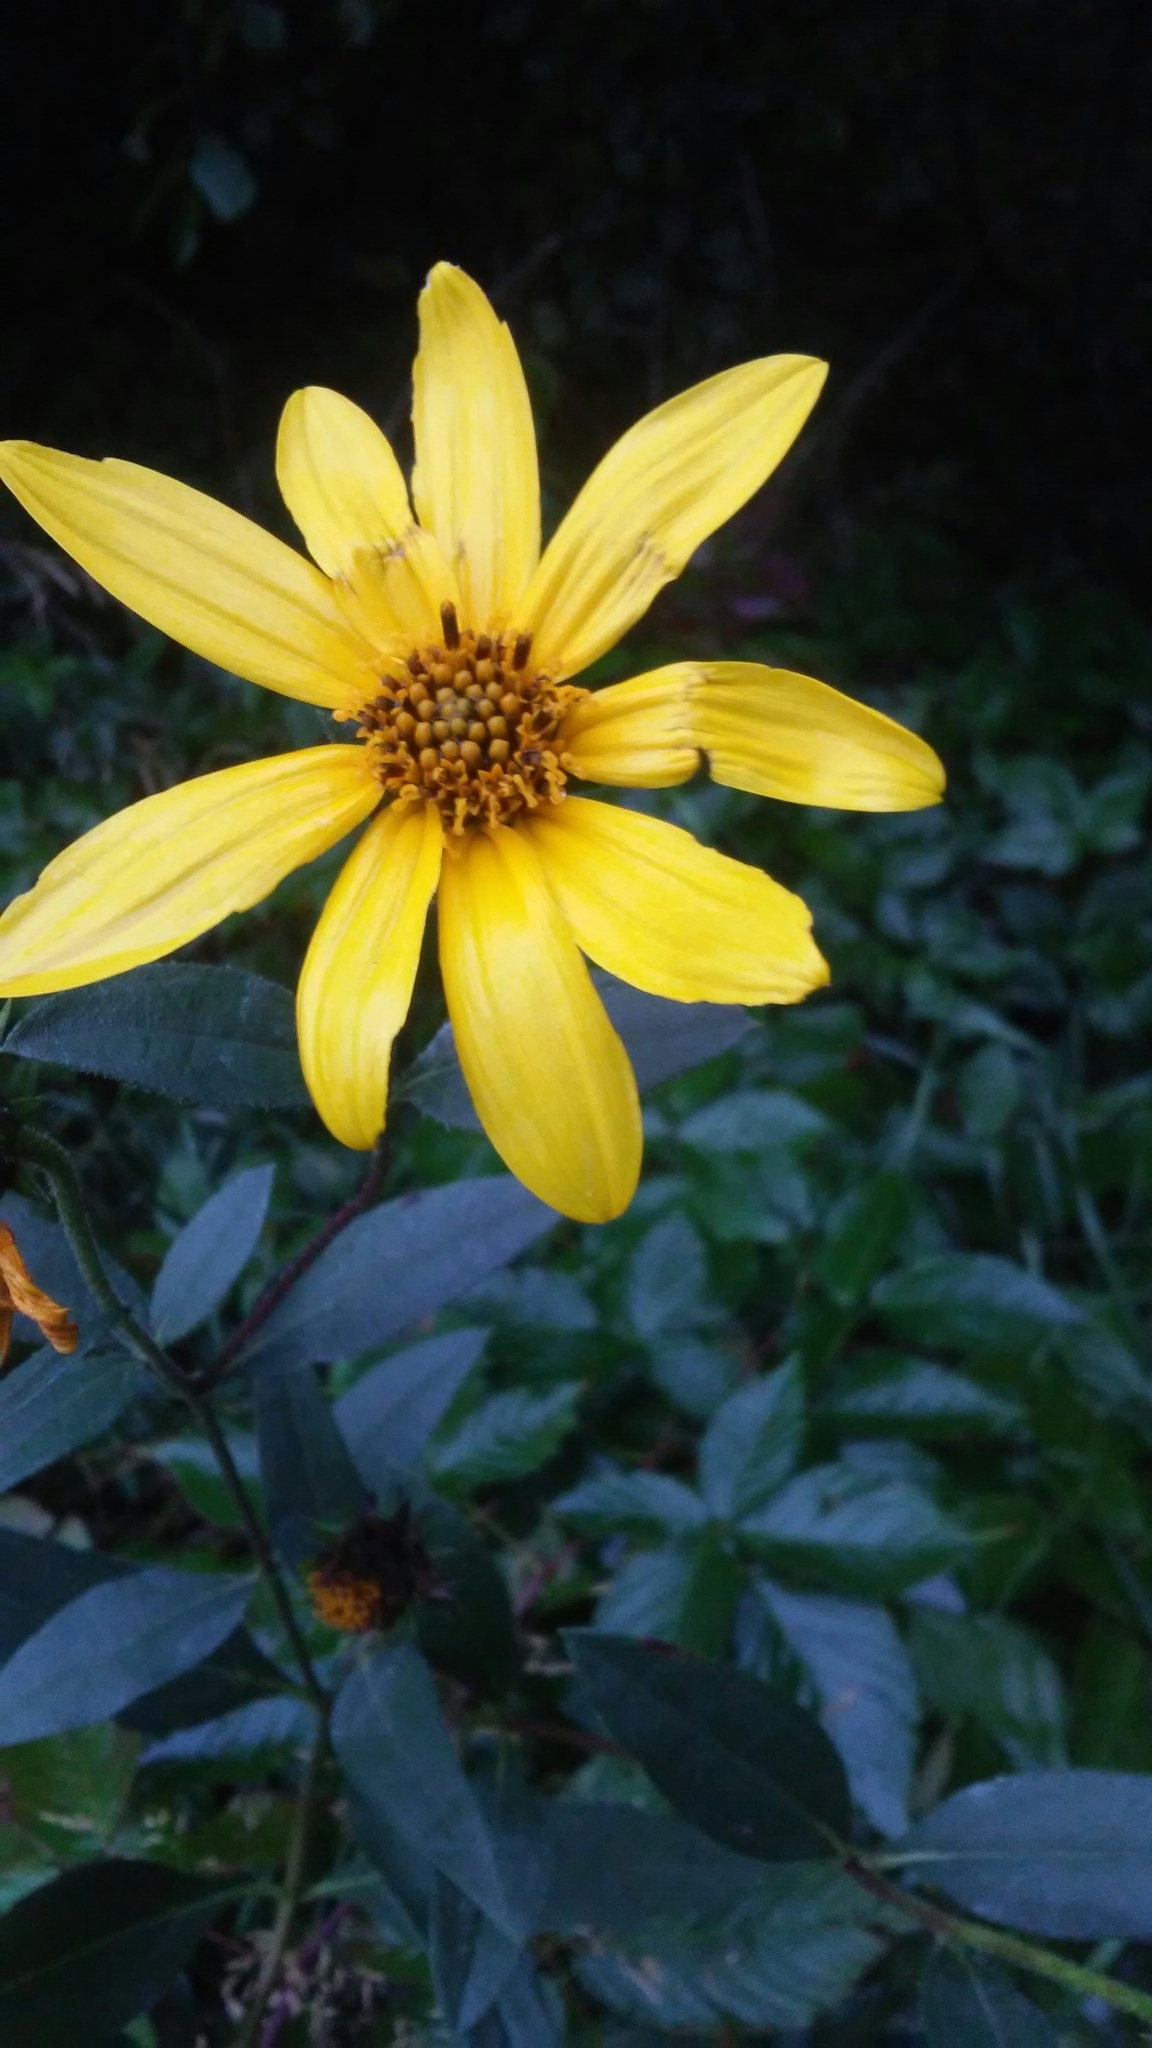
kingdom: Plantae
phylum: Tracheophyta
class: Magnoliopsida
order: Asterales
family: Asteraceae
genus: Bidens
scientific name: Bidens aristosa
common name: Western tickseed
